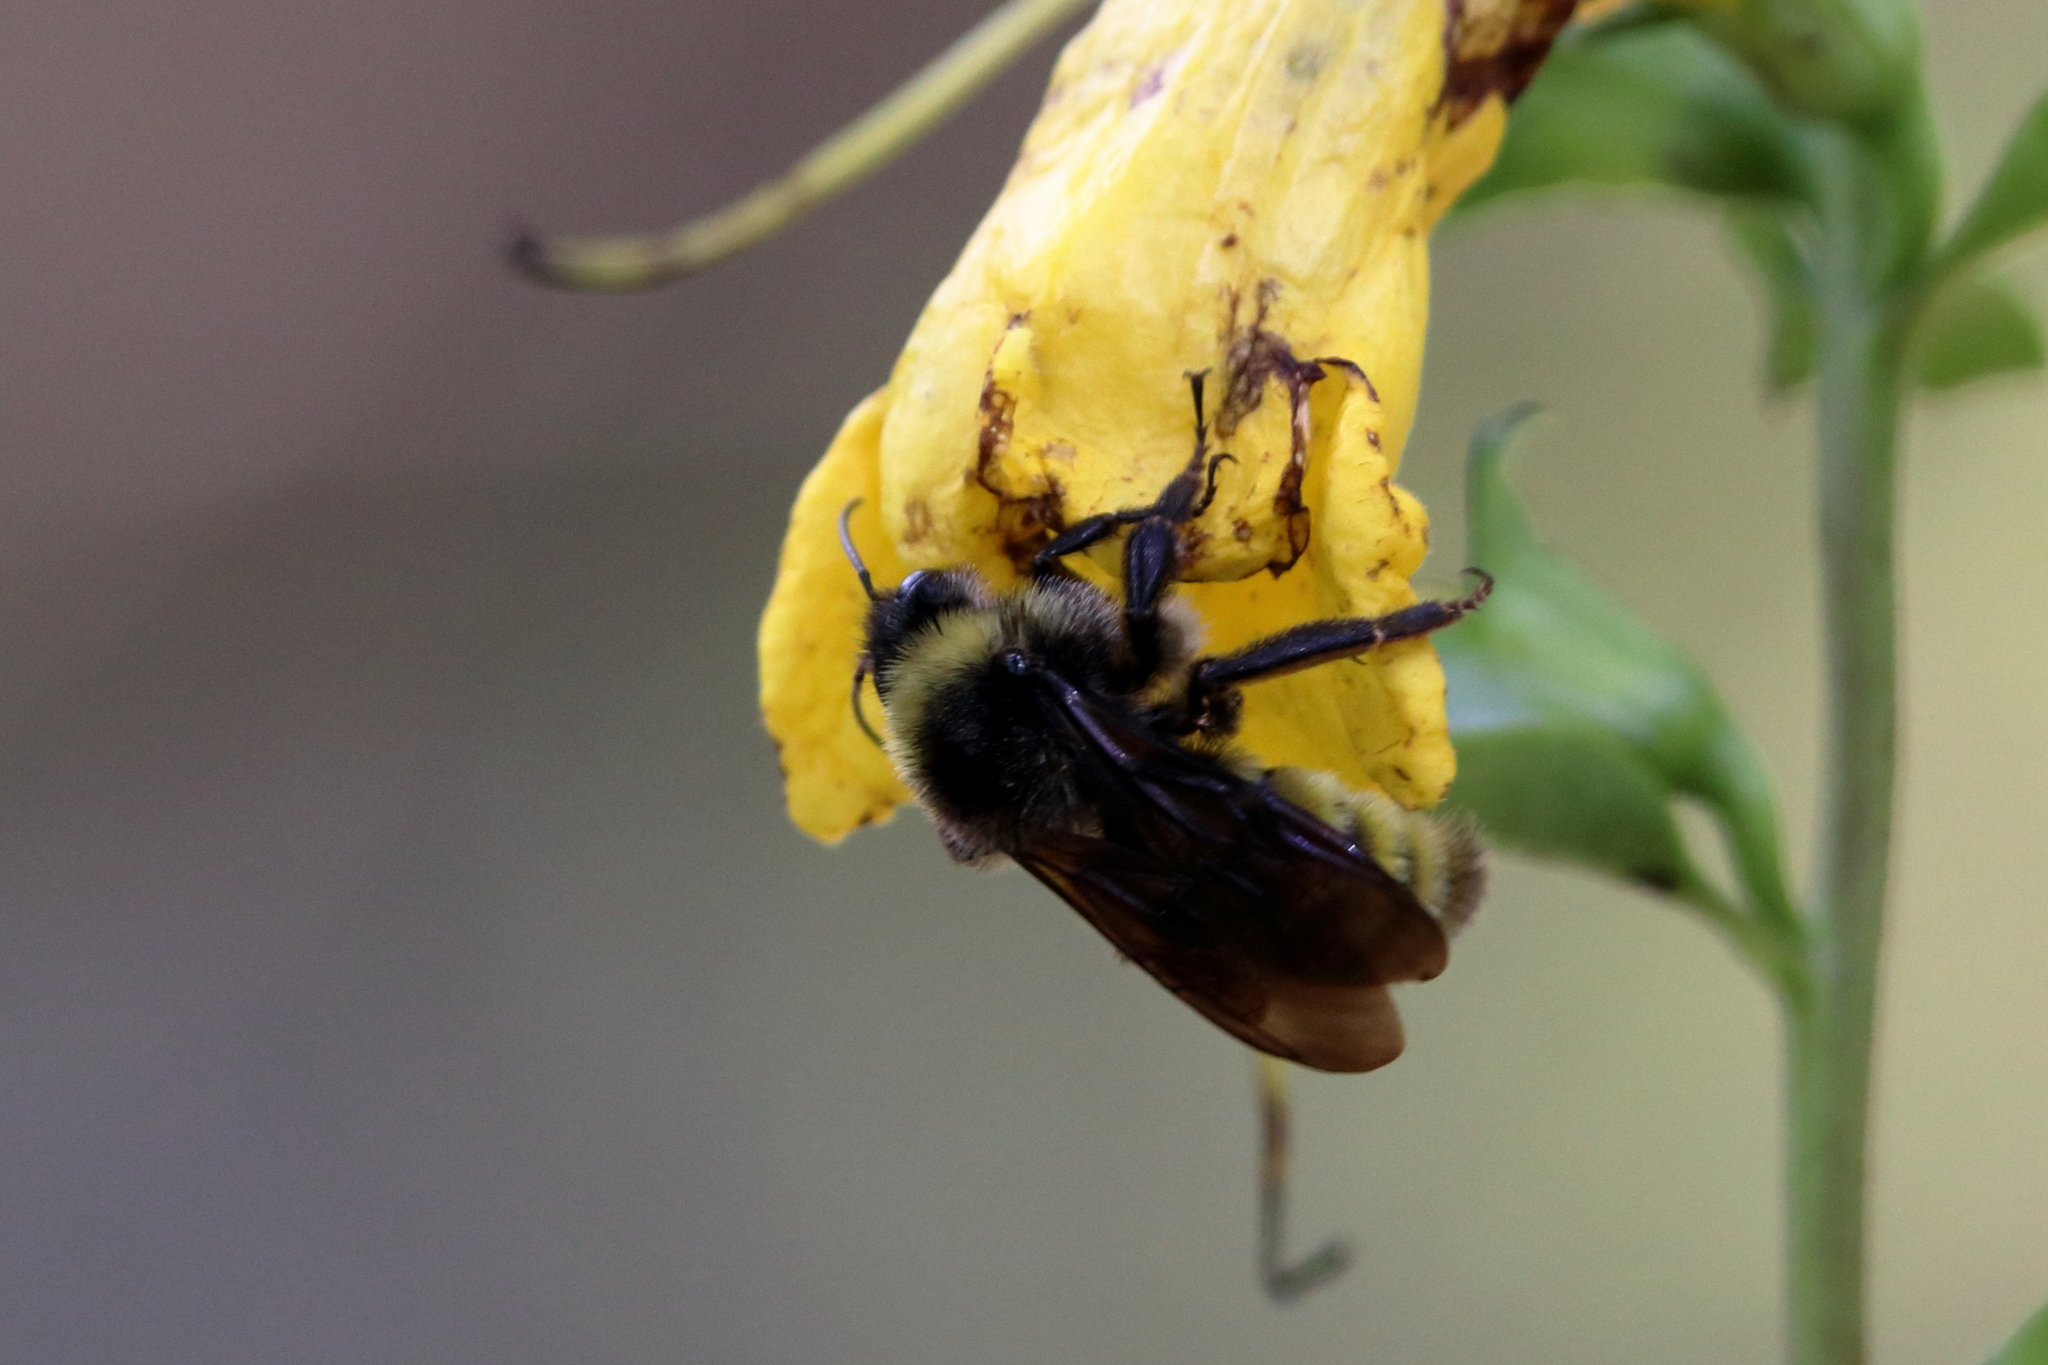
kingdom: Animalia
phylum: Arthropoda
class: Insecta
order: Hymenoptera
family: Apidae
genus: Bombus
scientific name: Bombus pensylvanicus
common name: Bumble bee
